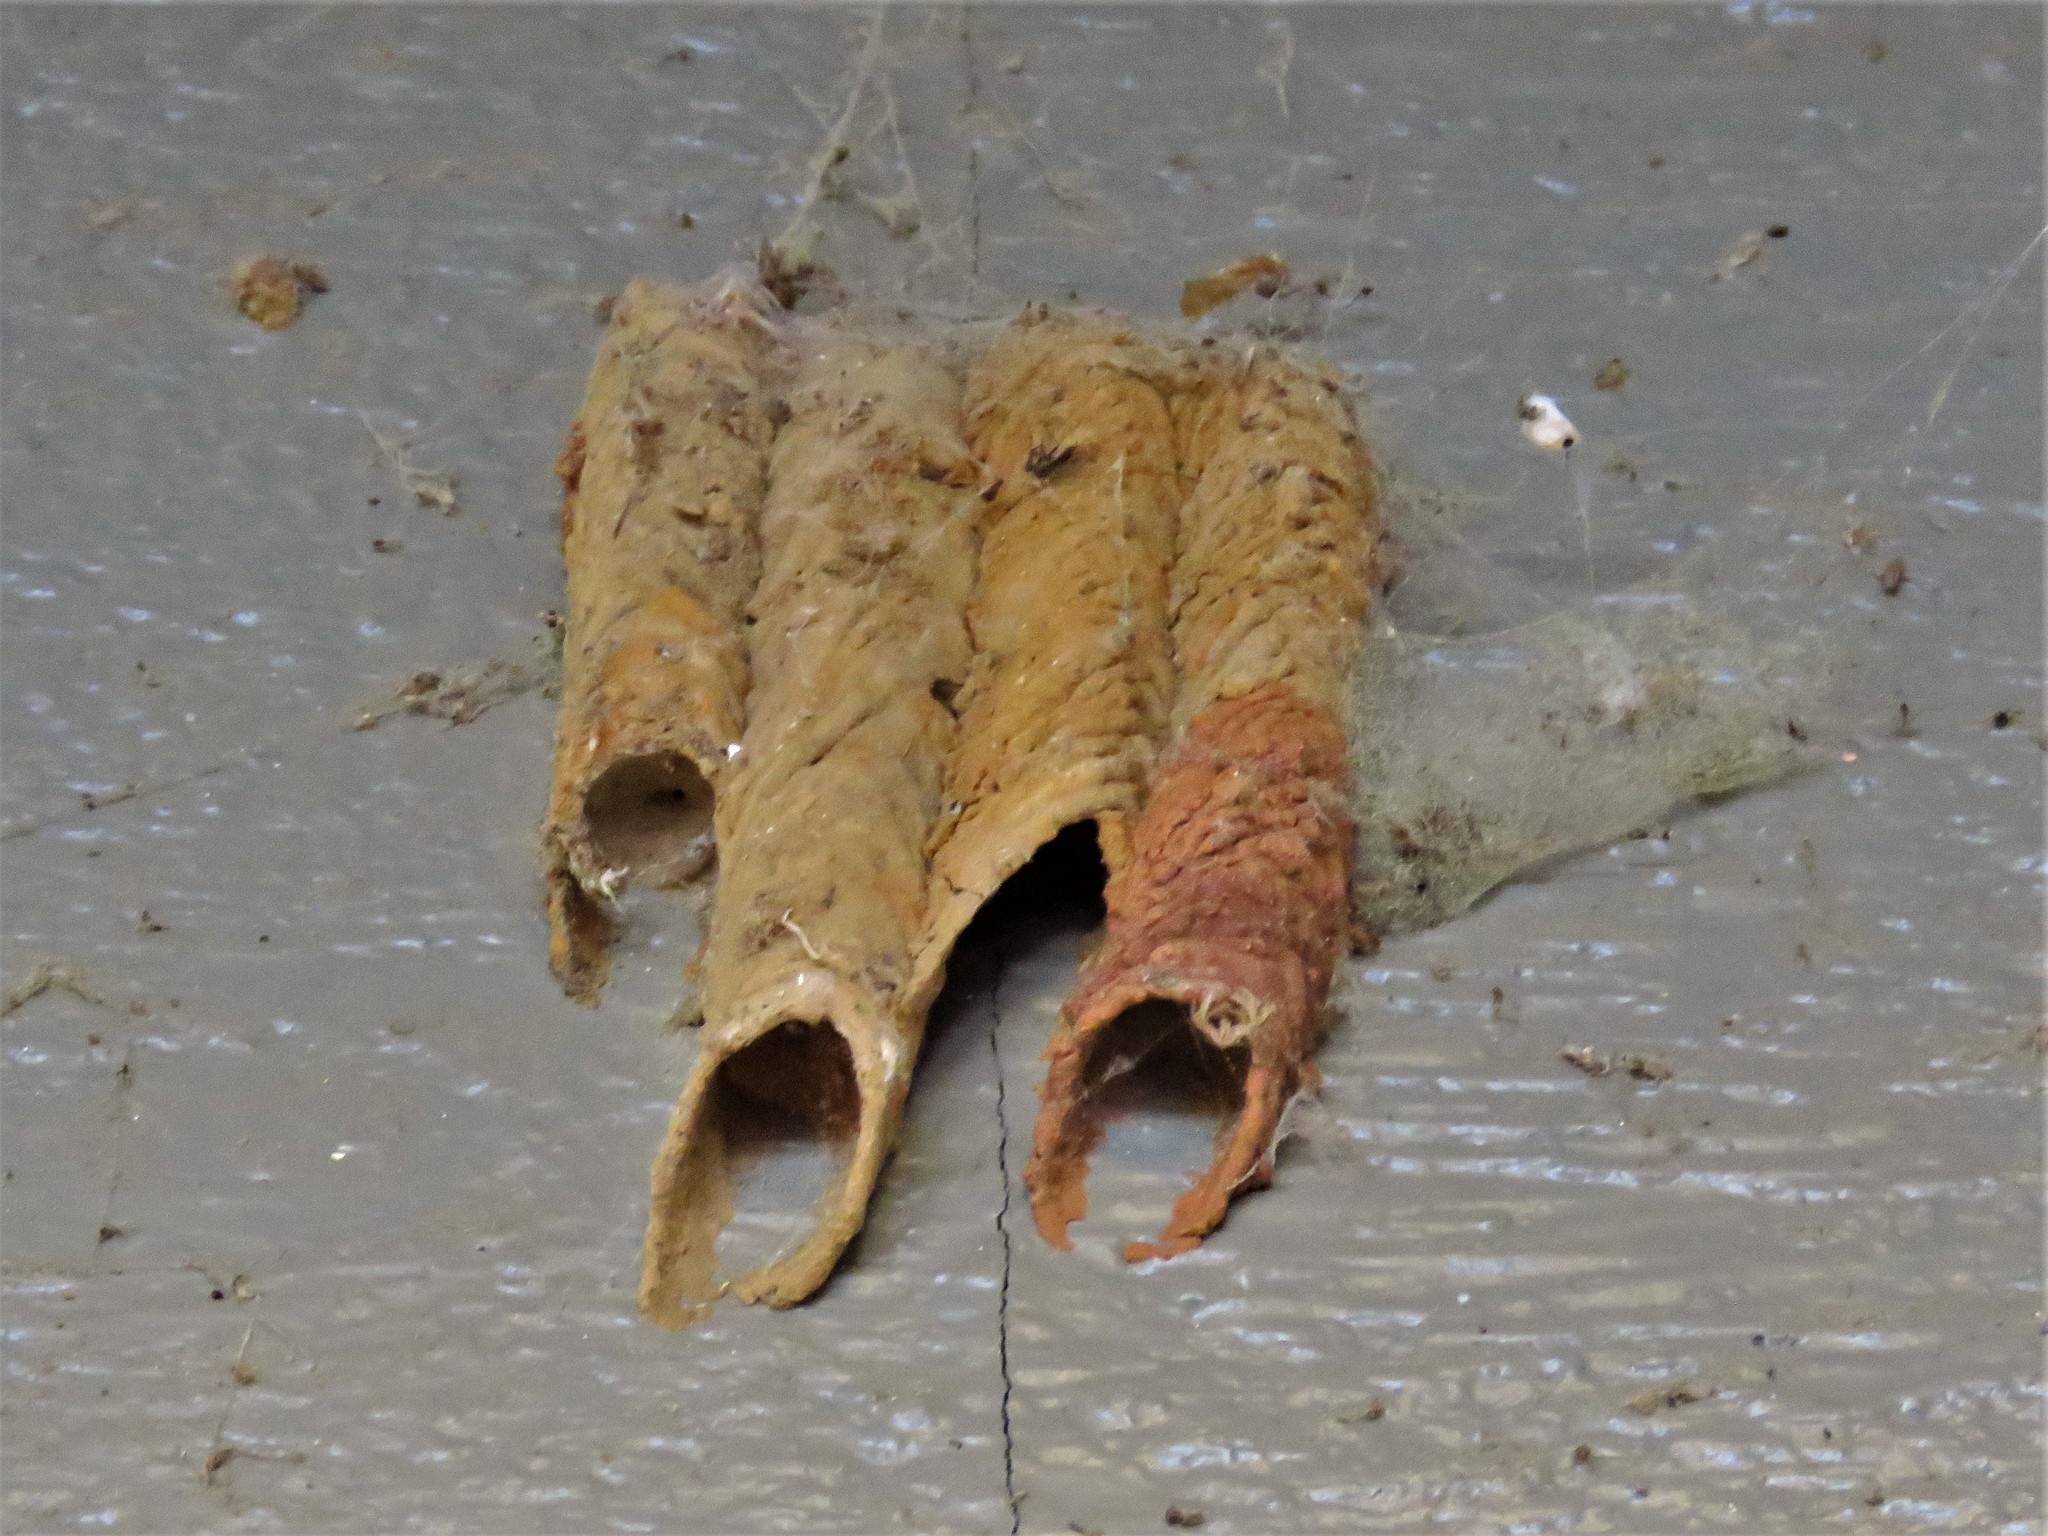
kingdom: Animalia
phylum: Arthropoda
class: Insecta
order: Hymenoptera
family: Crabronidae
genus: Trypoxylon
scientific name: Trypoxylon politum
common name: Organ-pipe mud-dauber wasp
